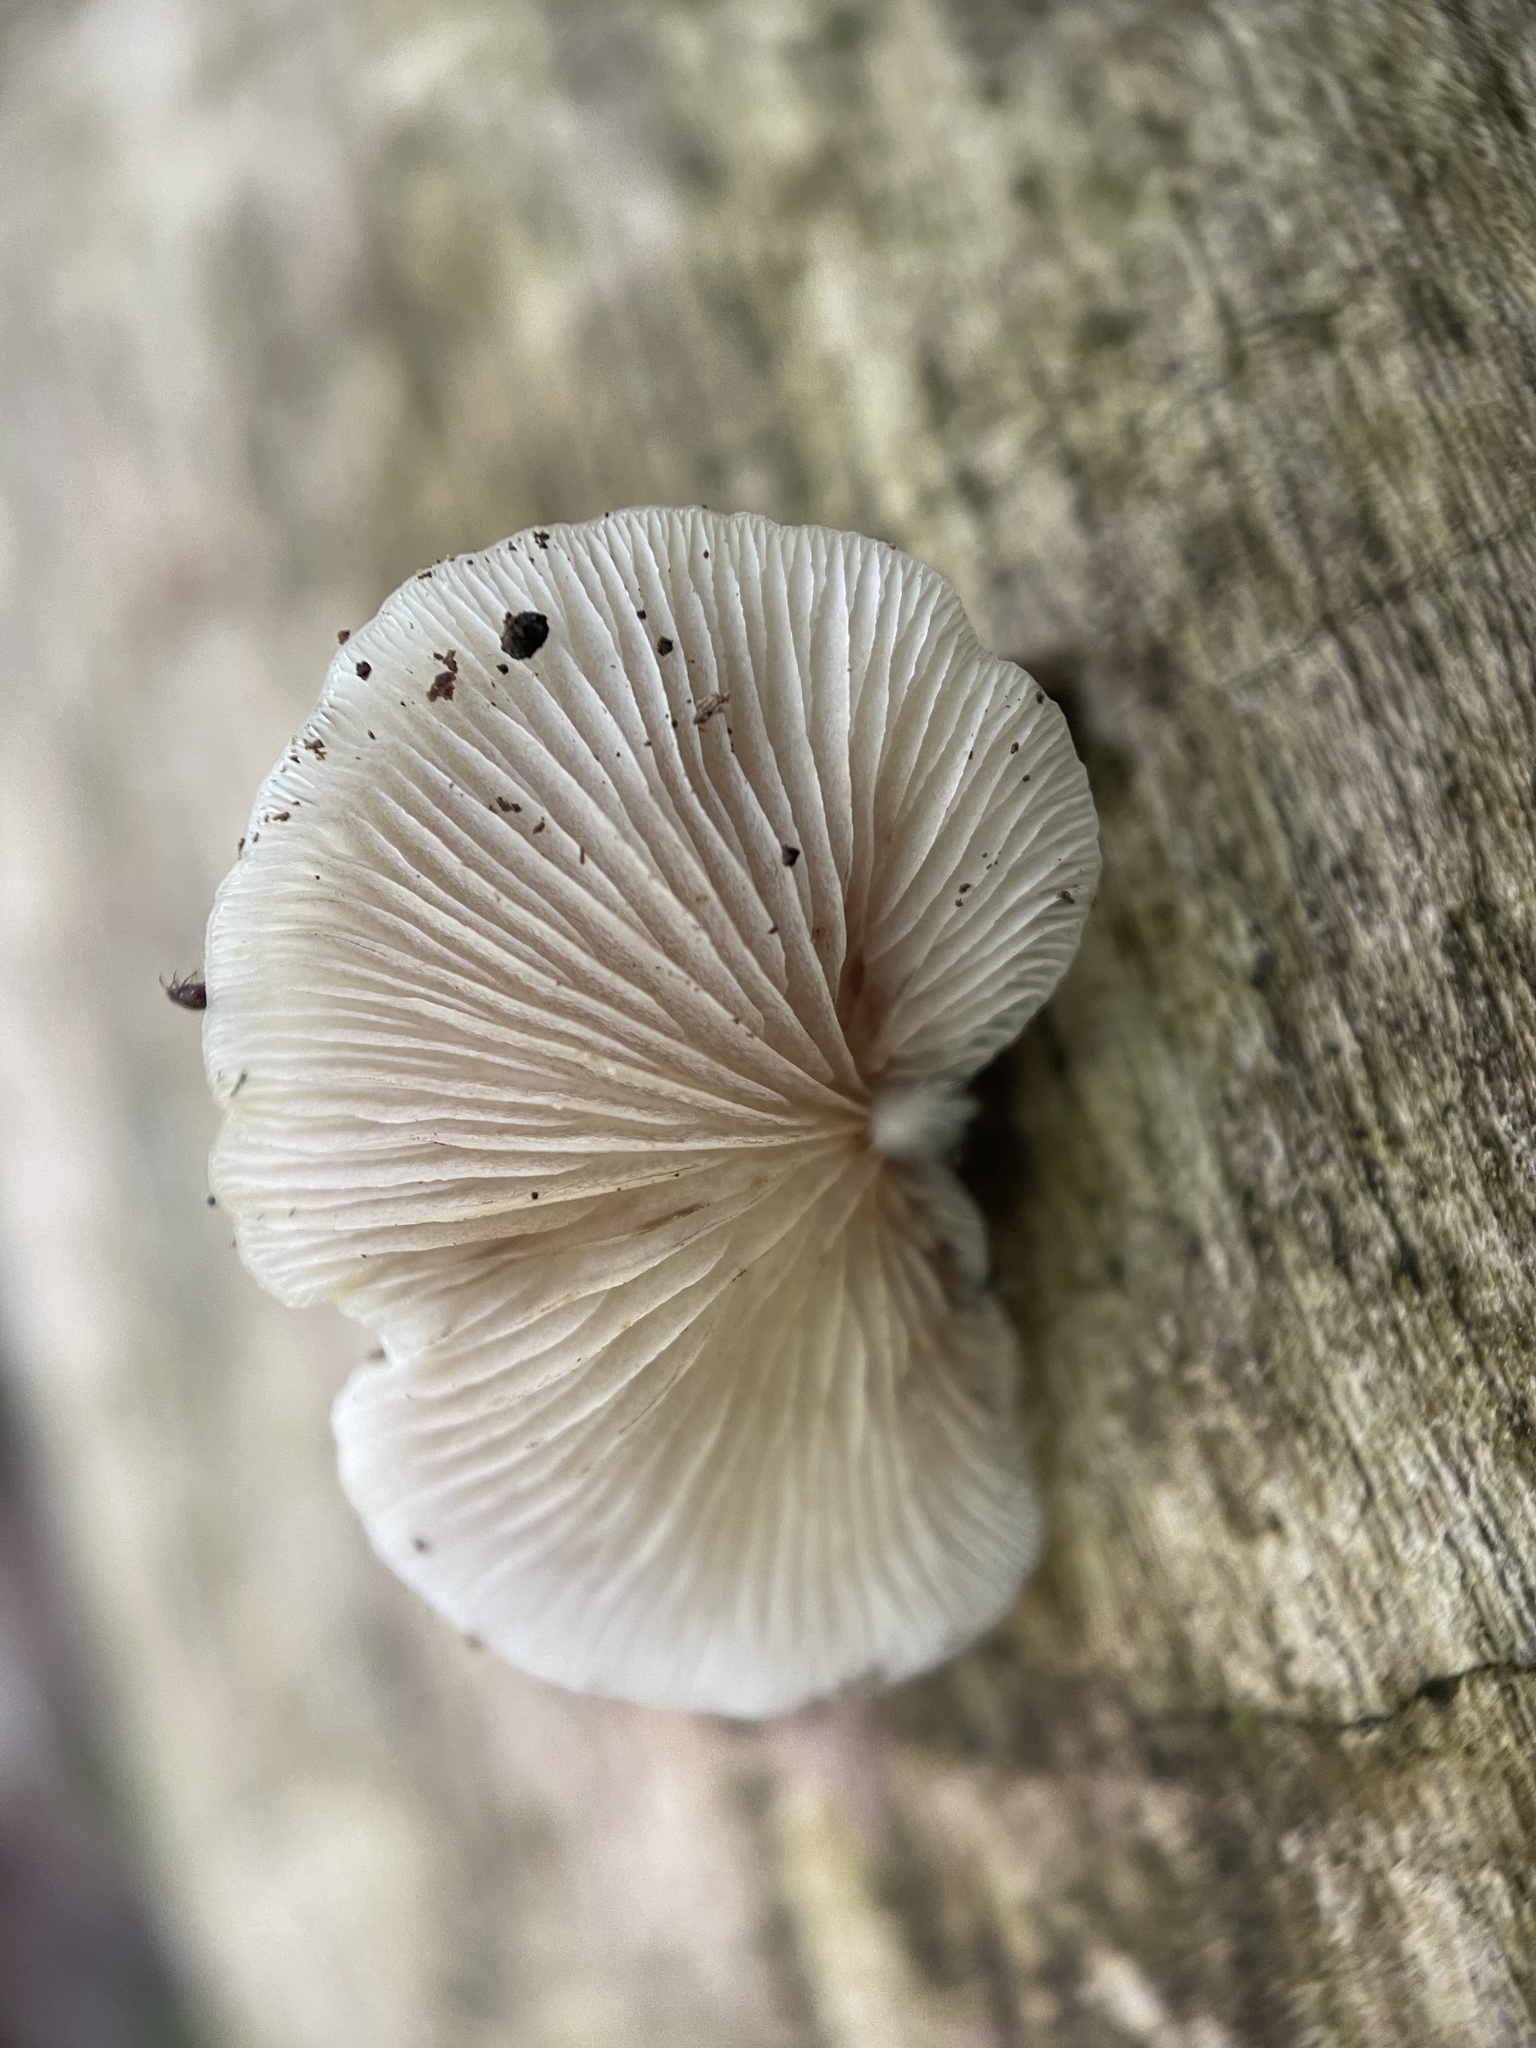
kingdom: Fungi
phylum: Basidiomycota
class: Agaricomycetes
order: Agaricales
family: Crepidotaceae
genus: Crepidotus
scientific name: Crepidotus applanatus
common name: Flat crep
